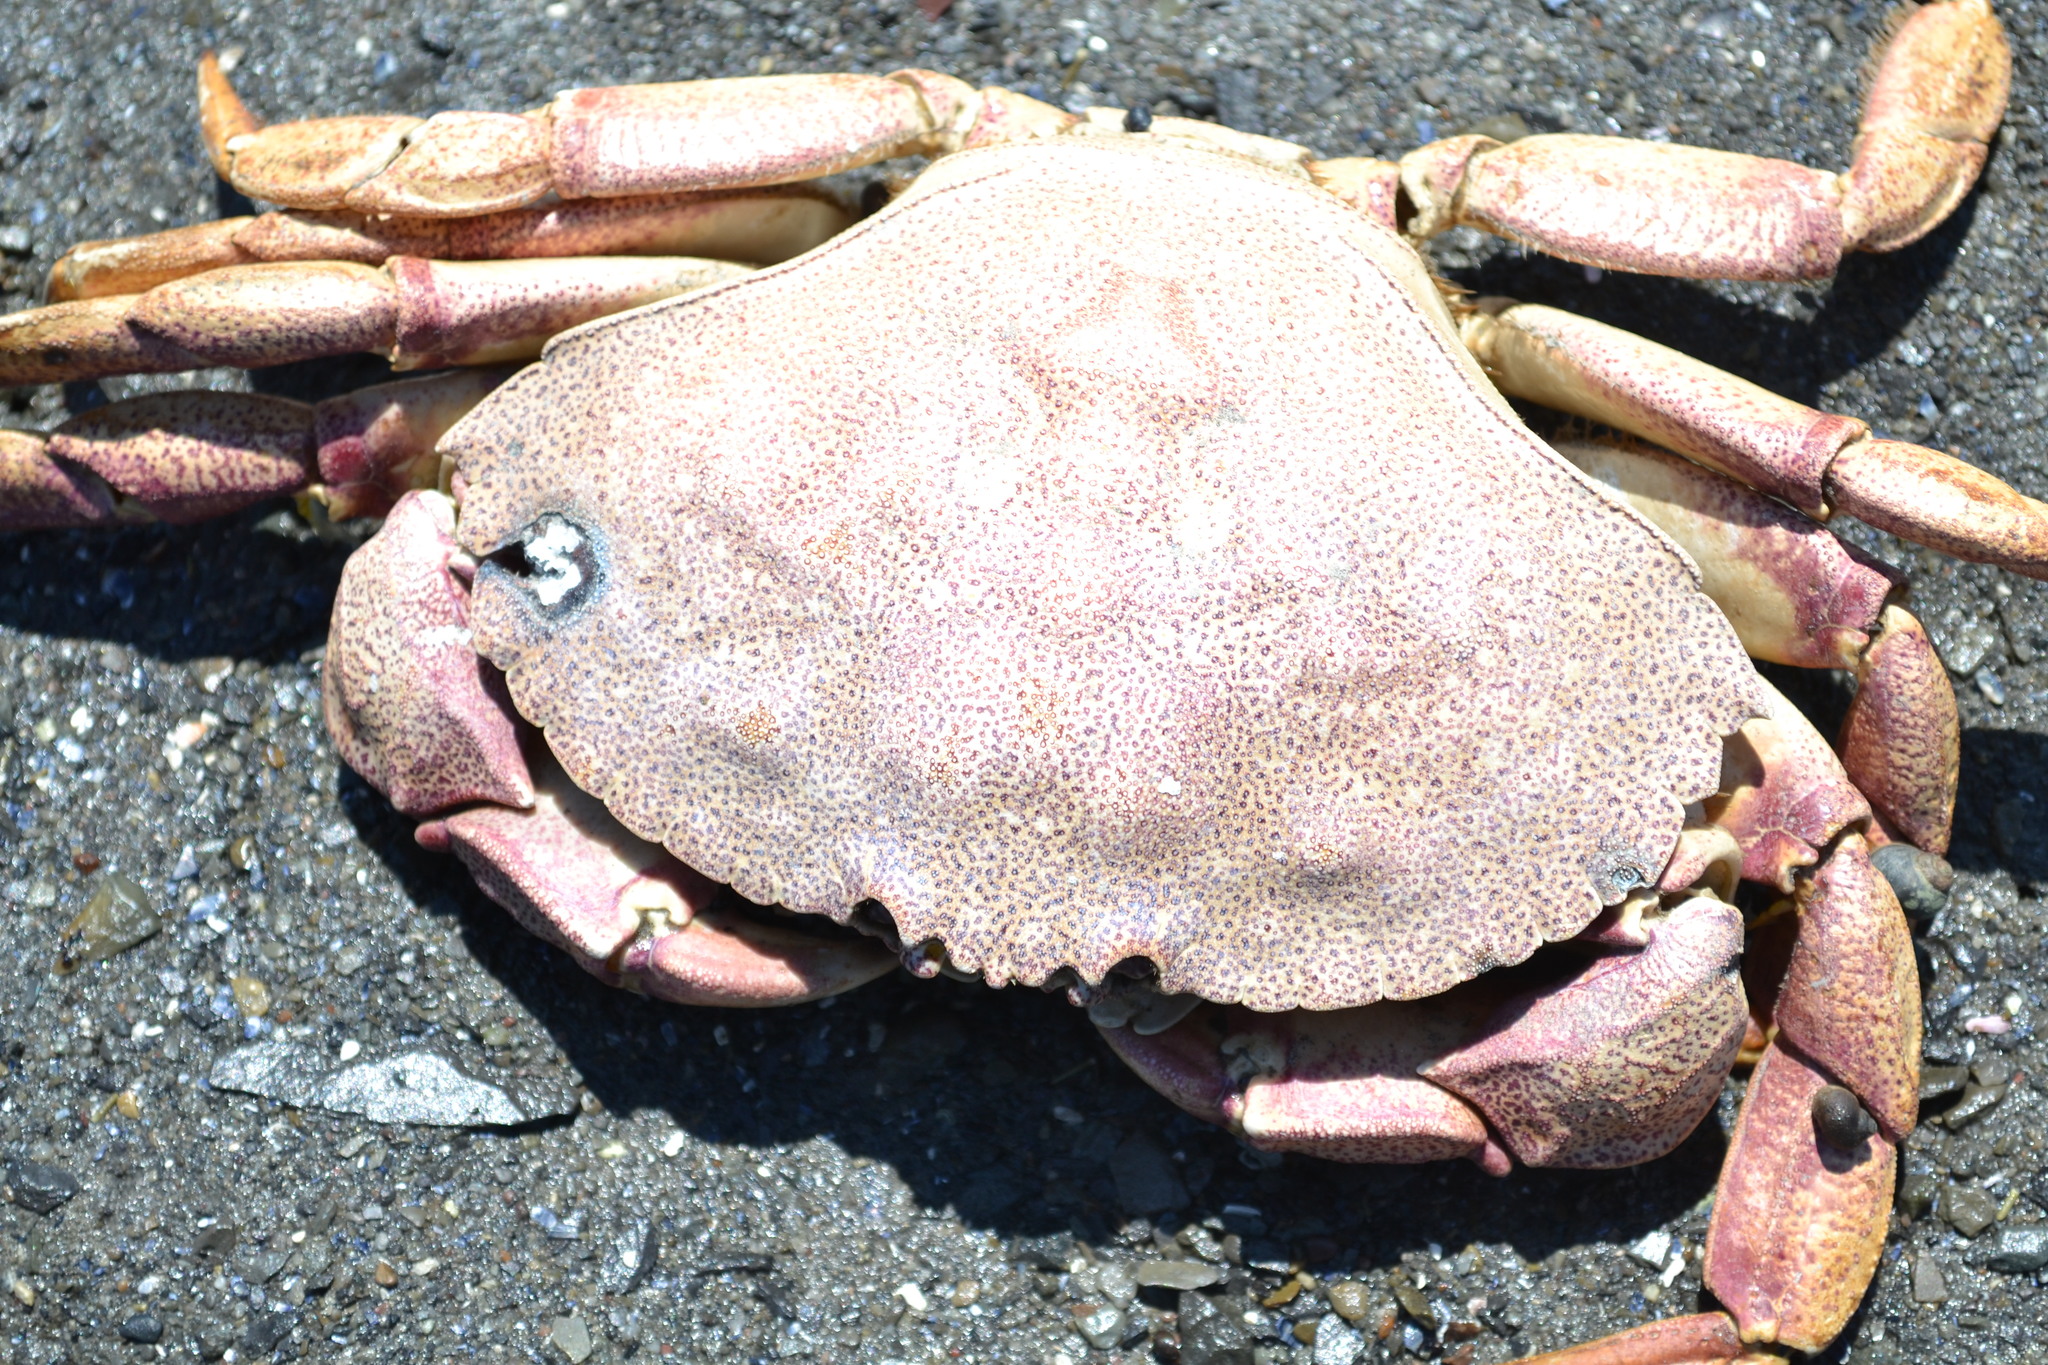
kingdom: Animalia
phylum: Arthropoda
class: Malacostraca
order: Decapoda
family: Cancridae
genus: Cancer
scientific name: Cancer irroratus
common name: Atlantic rock crab
